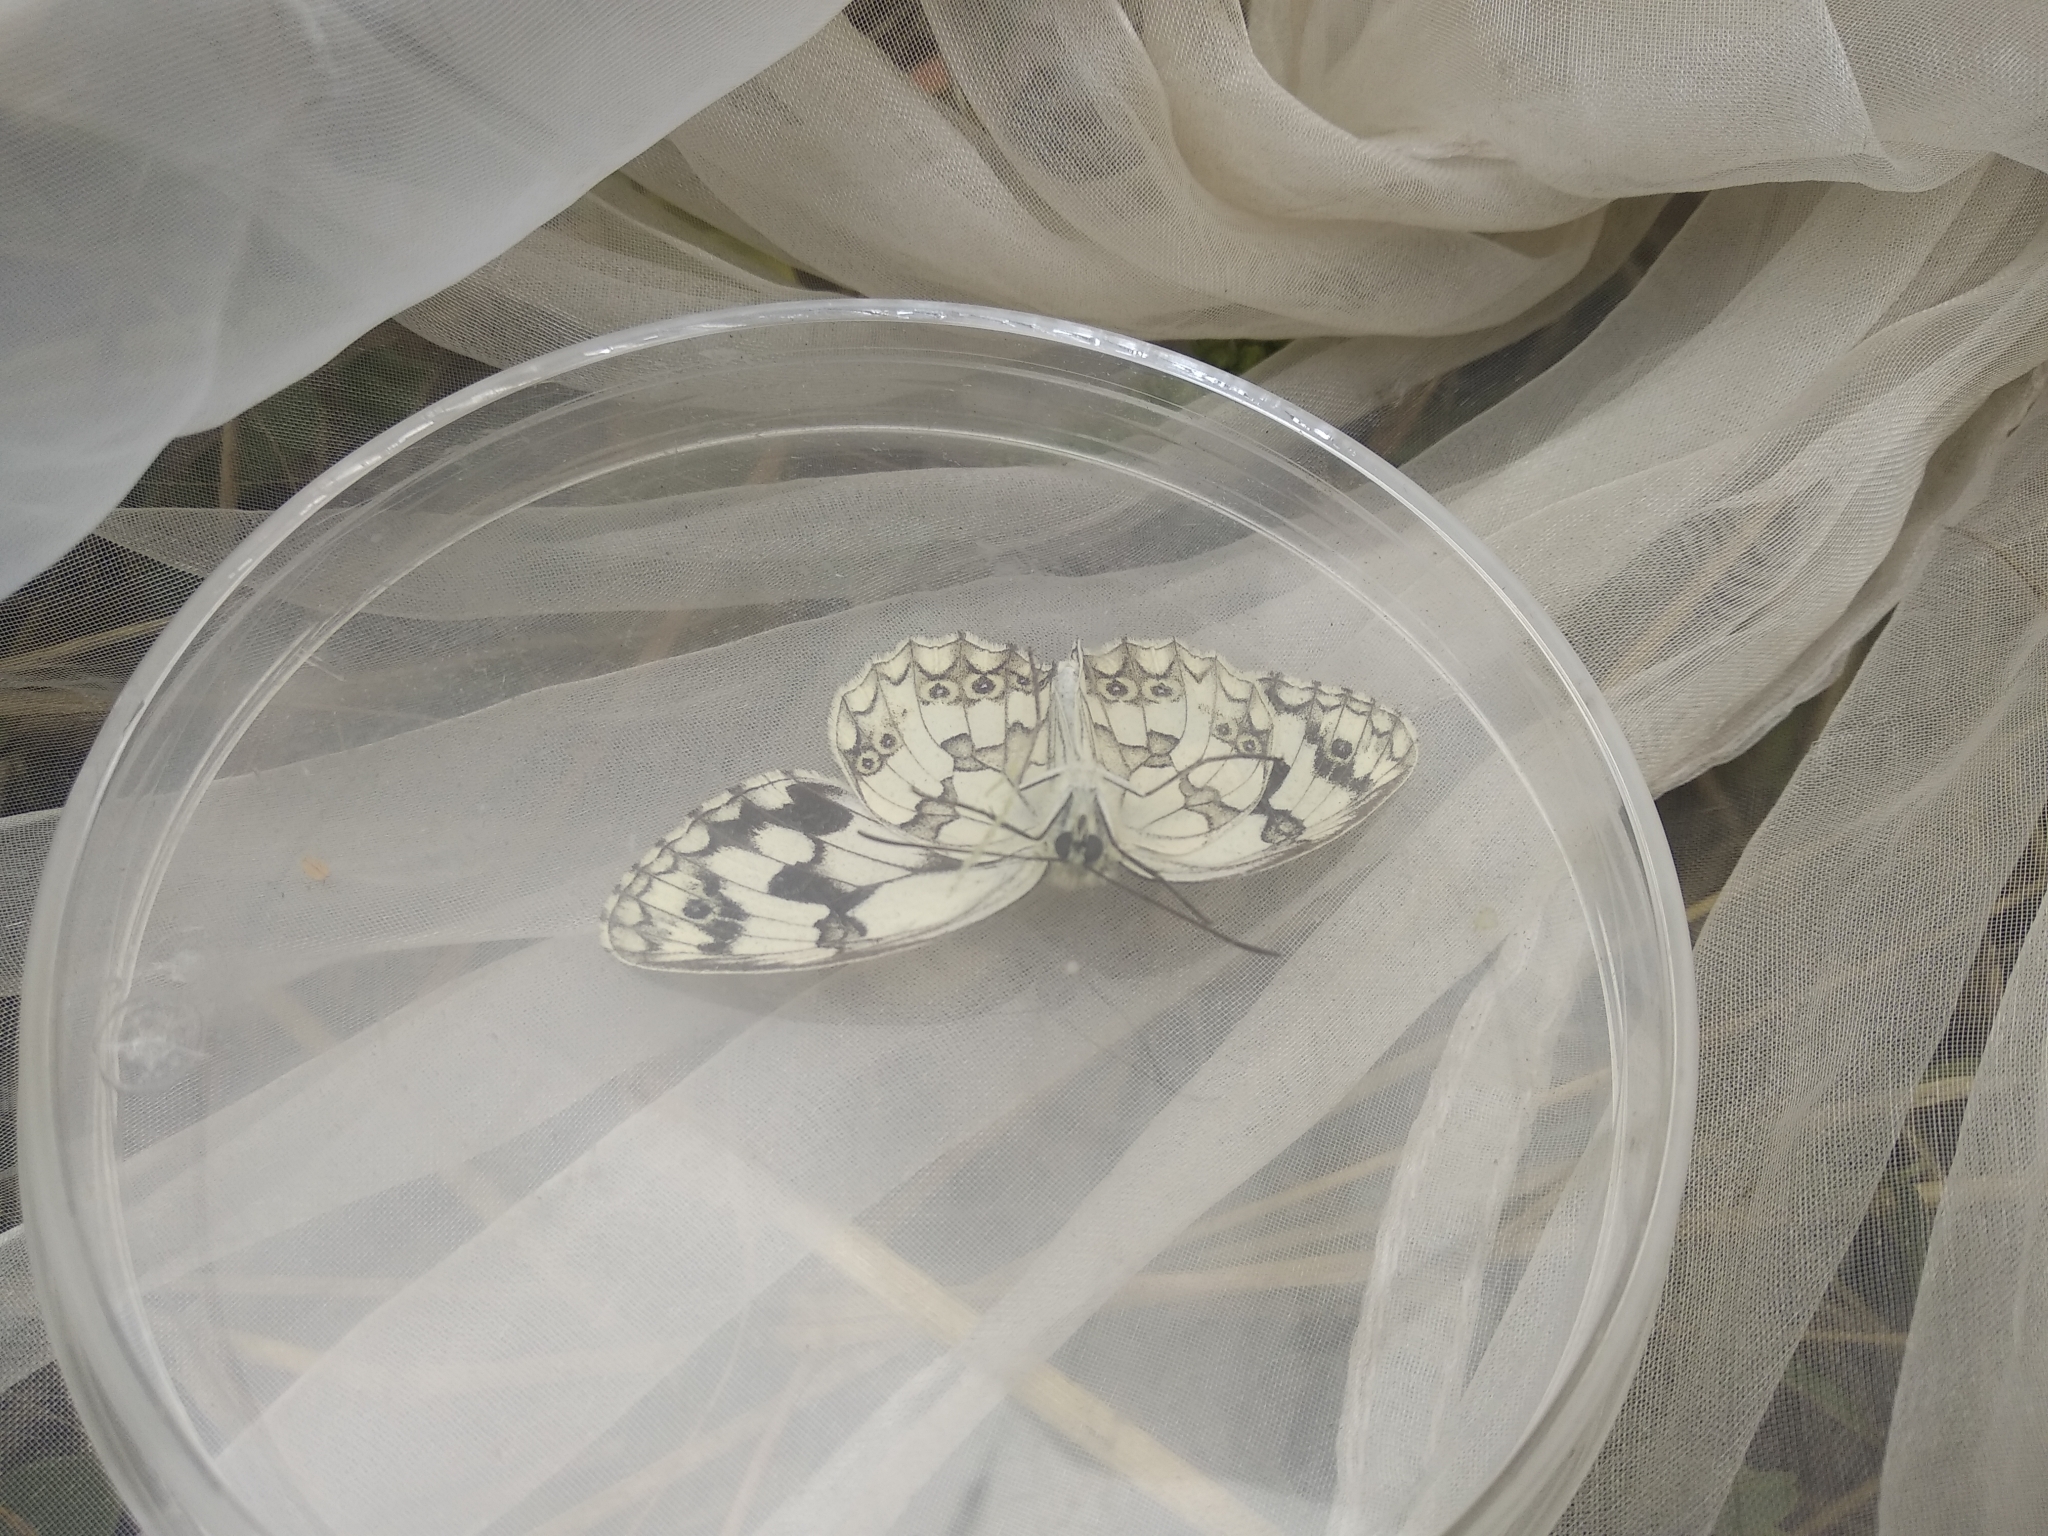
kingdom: Animalia
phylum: Arthropoda
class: Insecta
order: Lepidoptera
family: Nymphalidae
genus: Melanargia
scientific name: Melanargia lachesis
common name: Iberian marbled white
